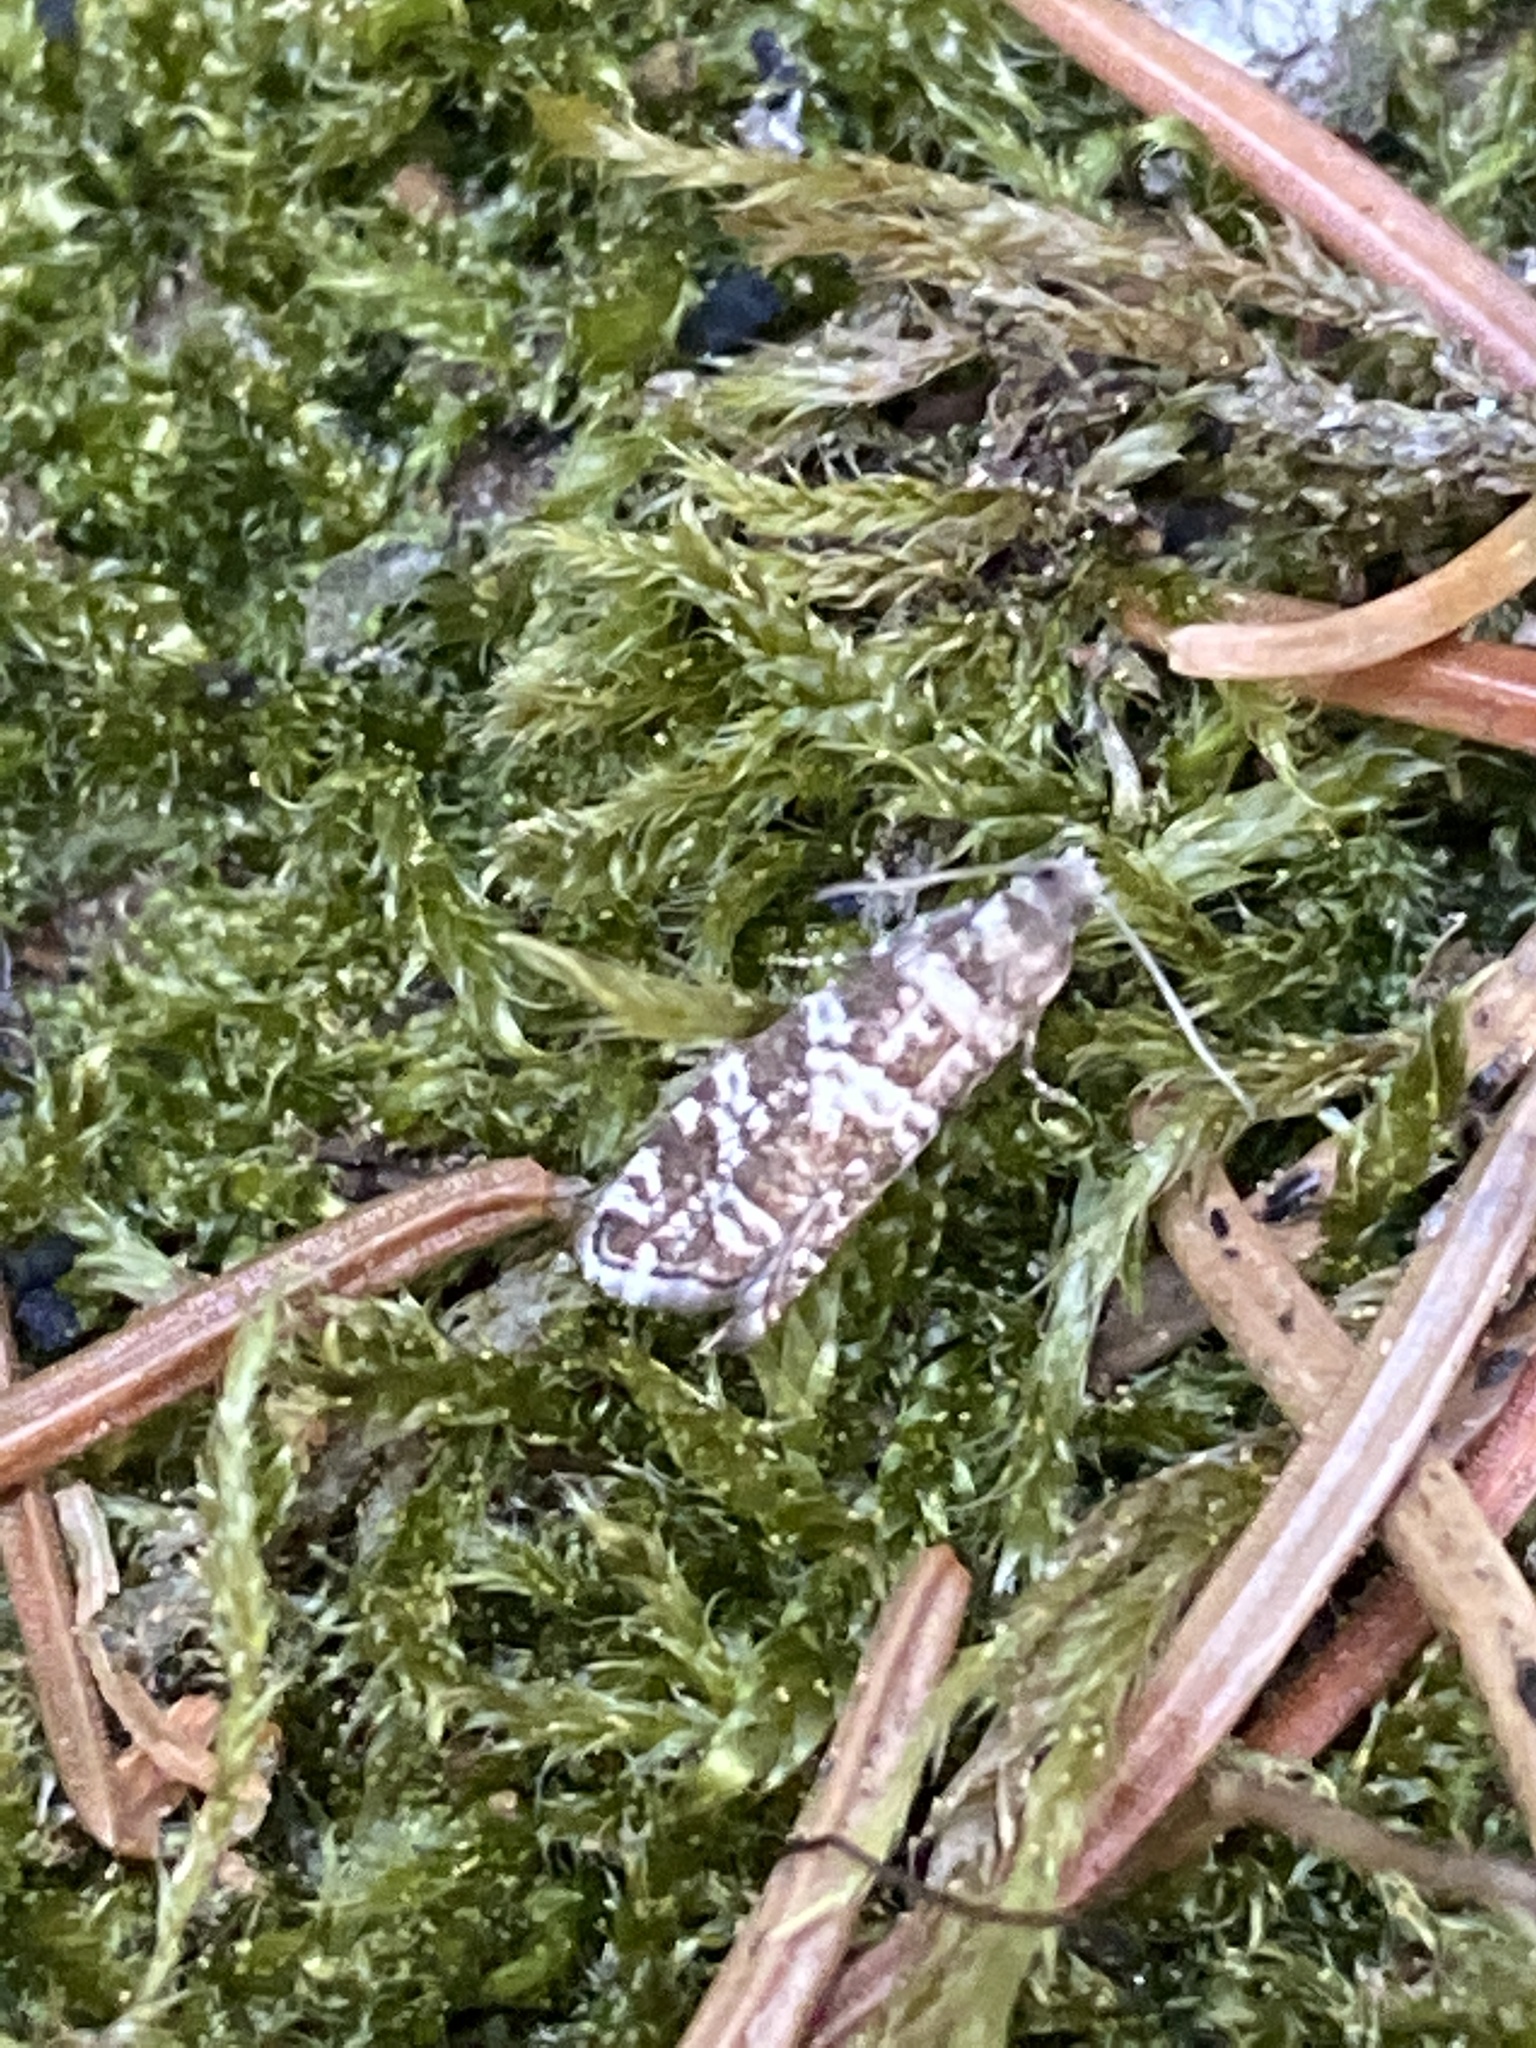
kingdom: Animalia
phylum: Arthropoda
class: Insecta
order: Lepidoptera
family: Tortricidae
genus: Epinotia
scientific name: Epinotia tedella
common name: Common spruce bell
